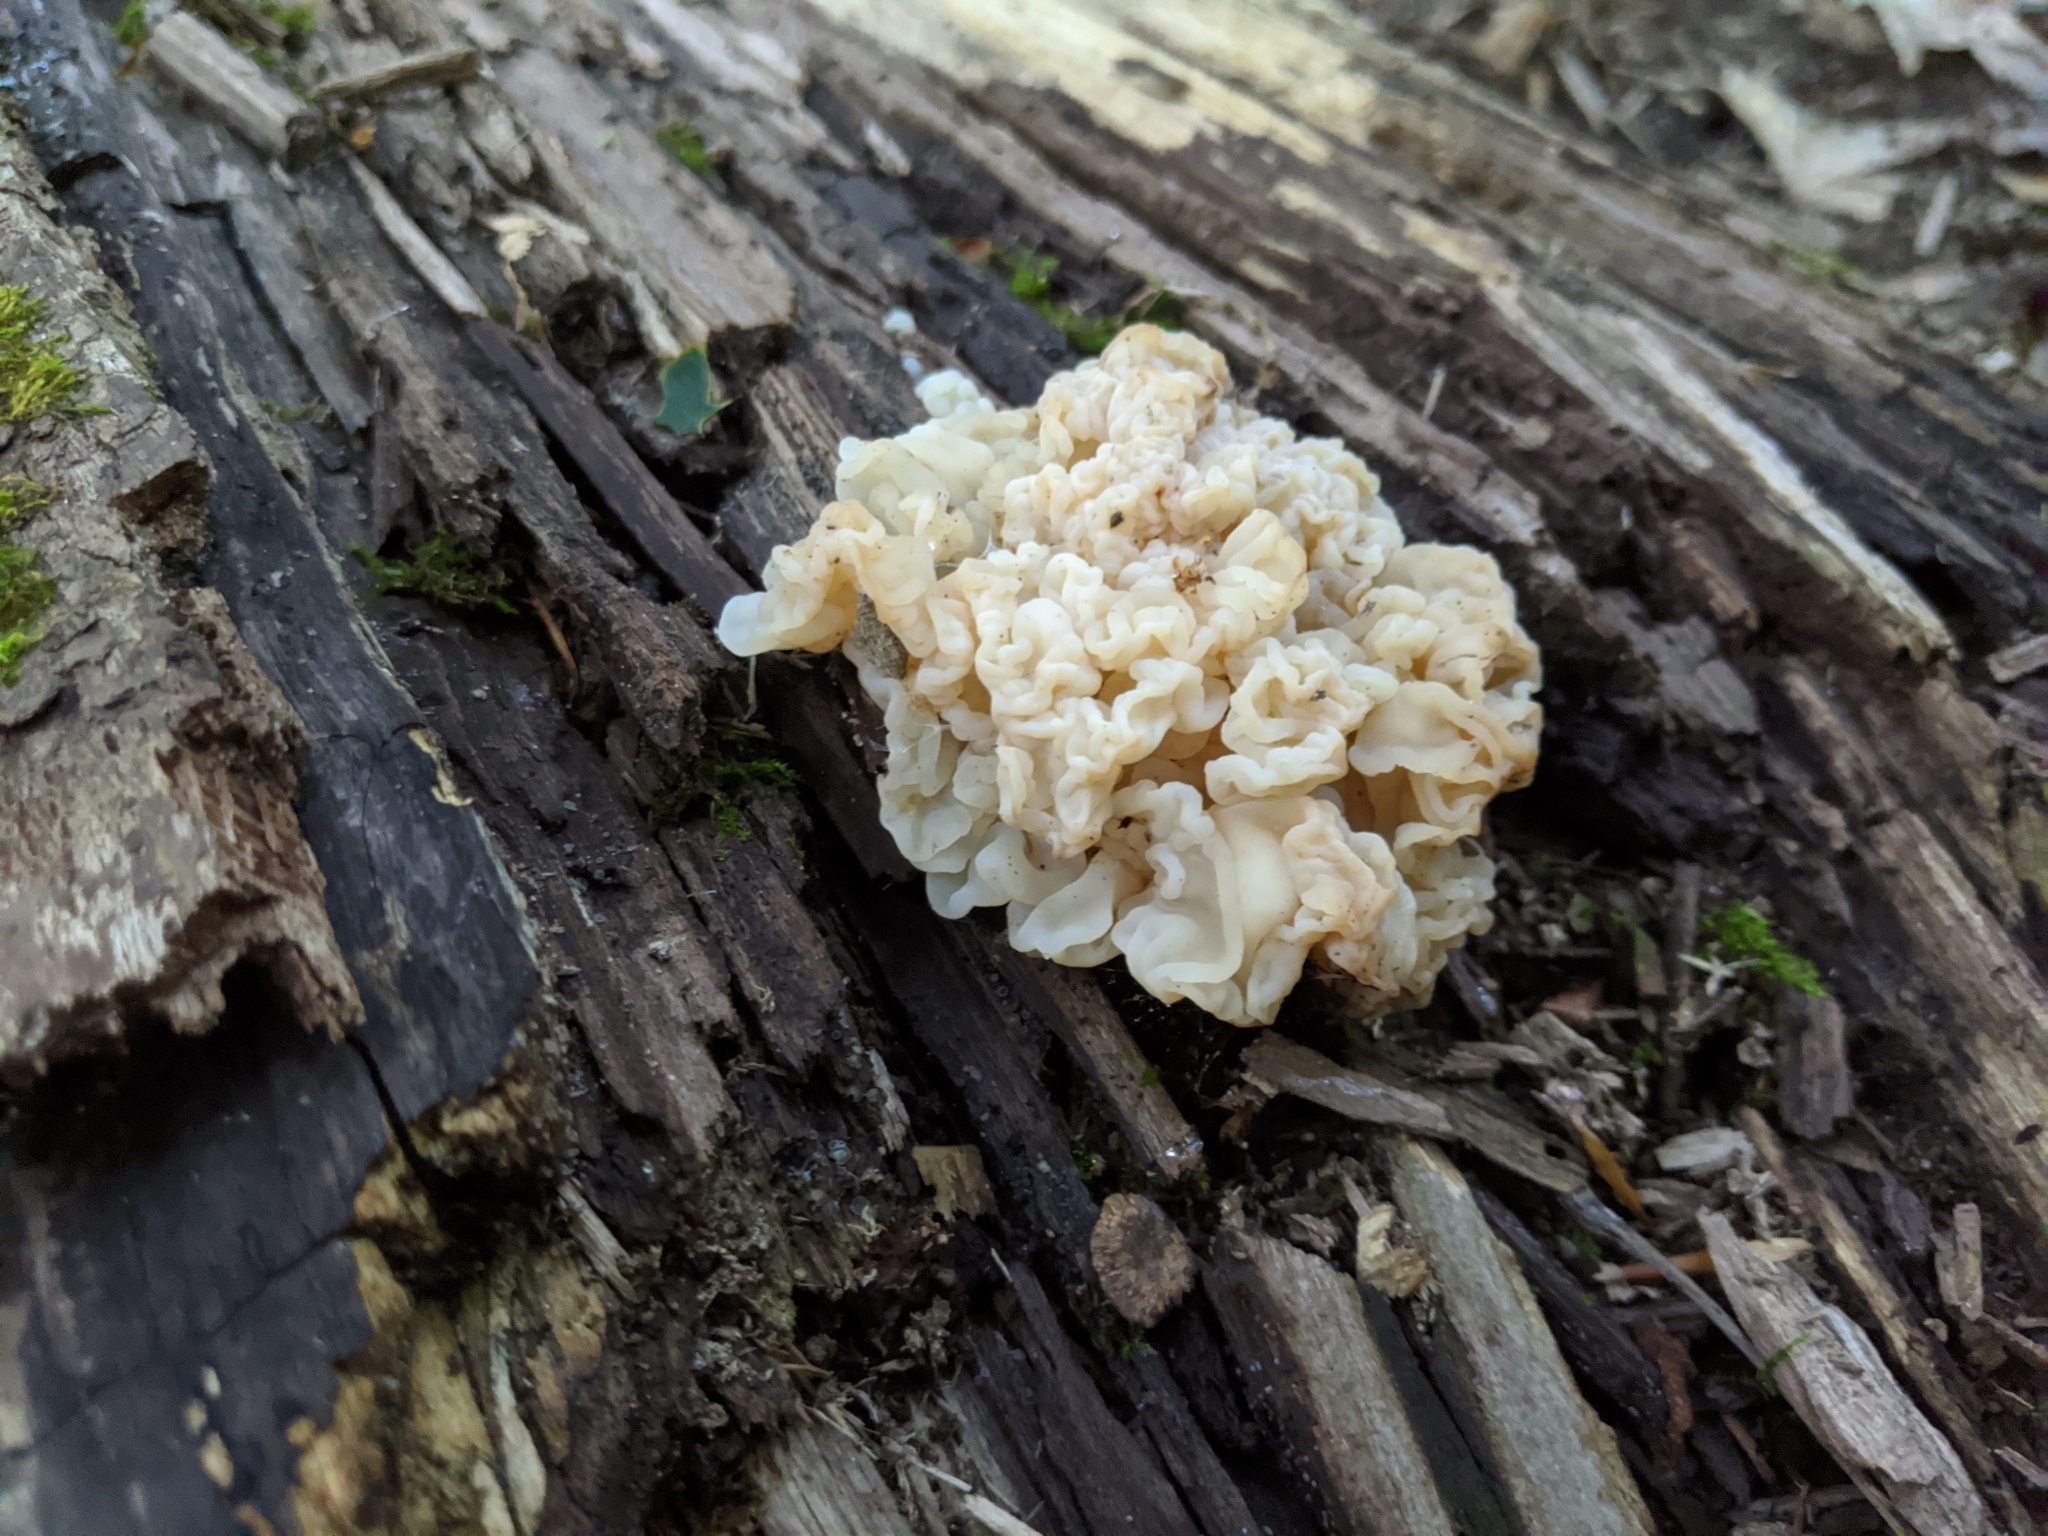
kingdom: Fungi
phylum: Basidiomycota
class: Agaricomycetes
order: Auriculariales
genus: Ductifera
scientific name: Ductifera pululahuana
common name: White jelly fungus
